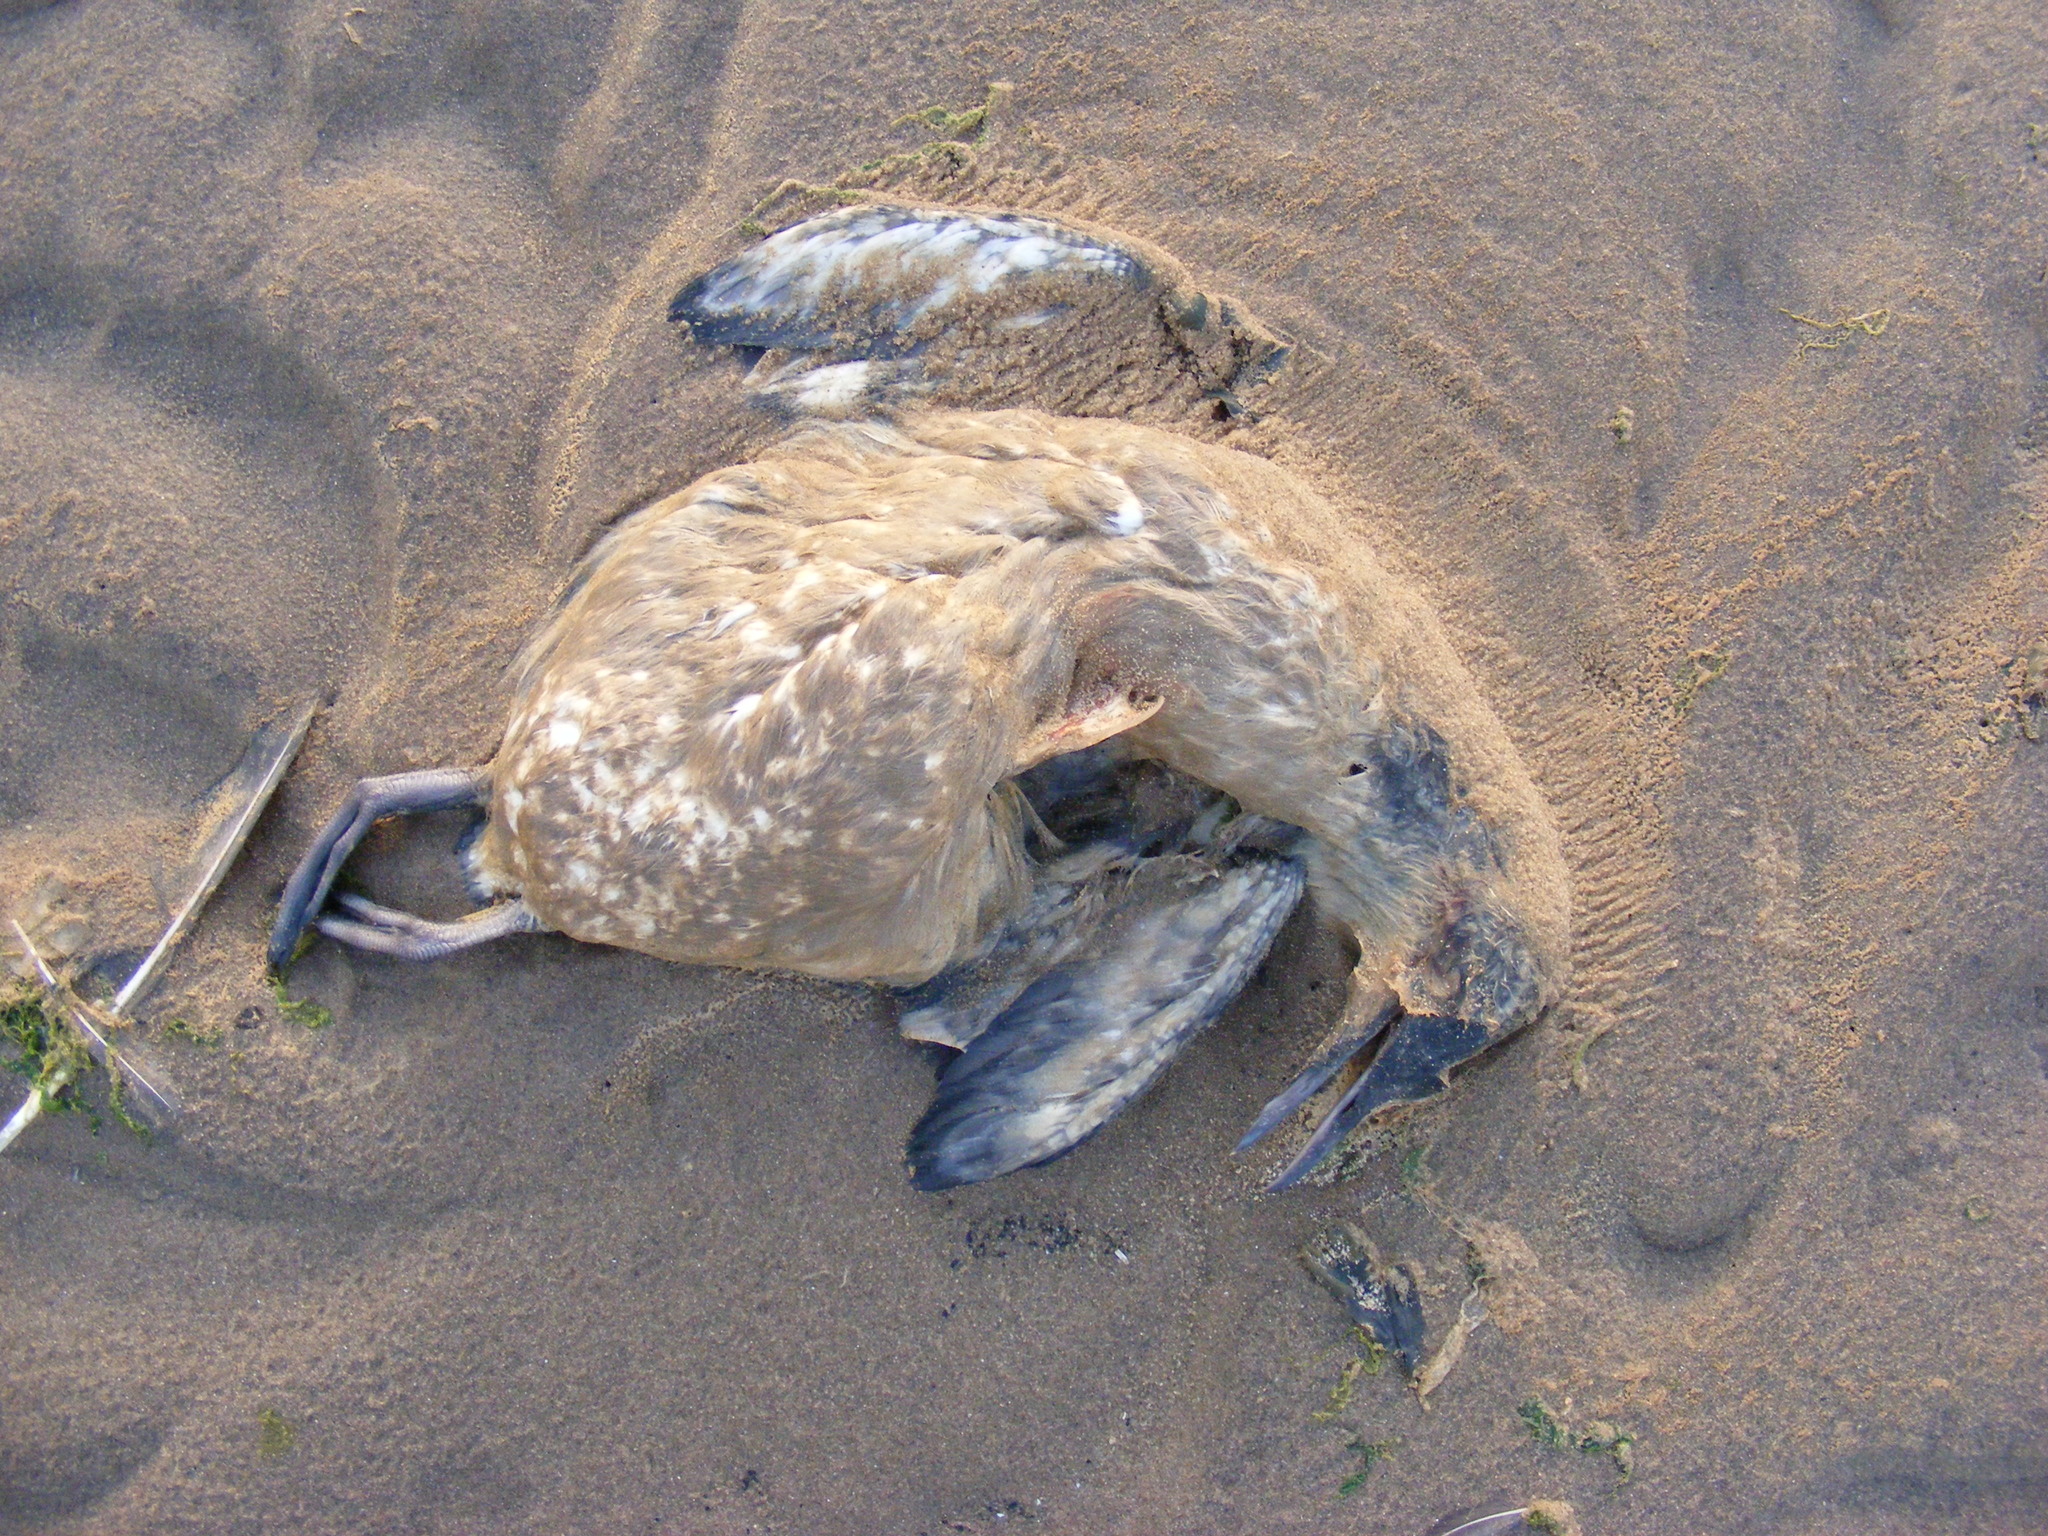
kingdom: Animalia
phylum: Chordata
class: Aves
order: Charadriiformes
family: Alcidae
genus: Uria
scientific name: Uria aalge
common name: Common murre
